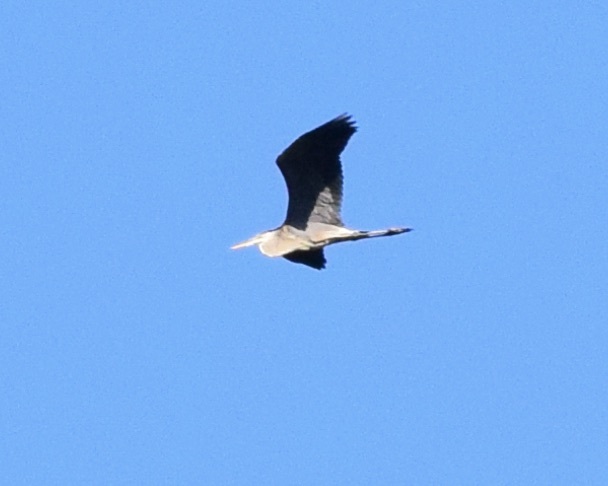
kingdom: Animalia
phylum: Chordata
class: Aves
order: Pelecaniformes
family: Ardeidae
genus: Ardea
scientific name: Ardea herodias
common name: Great blue heron
